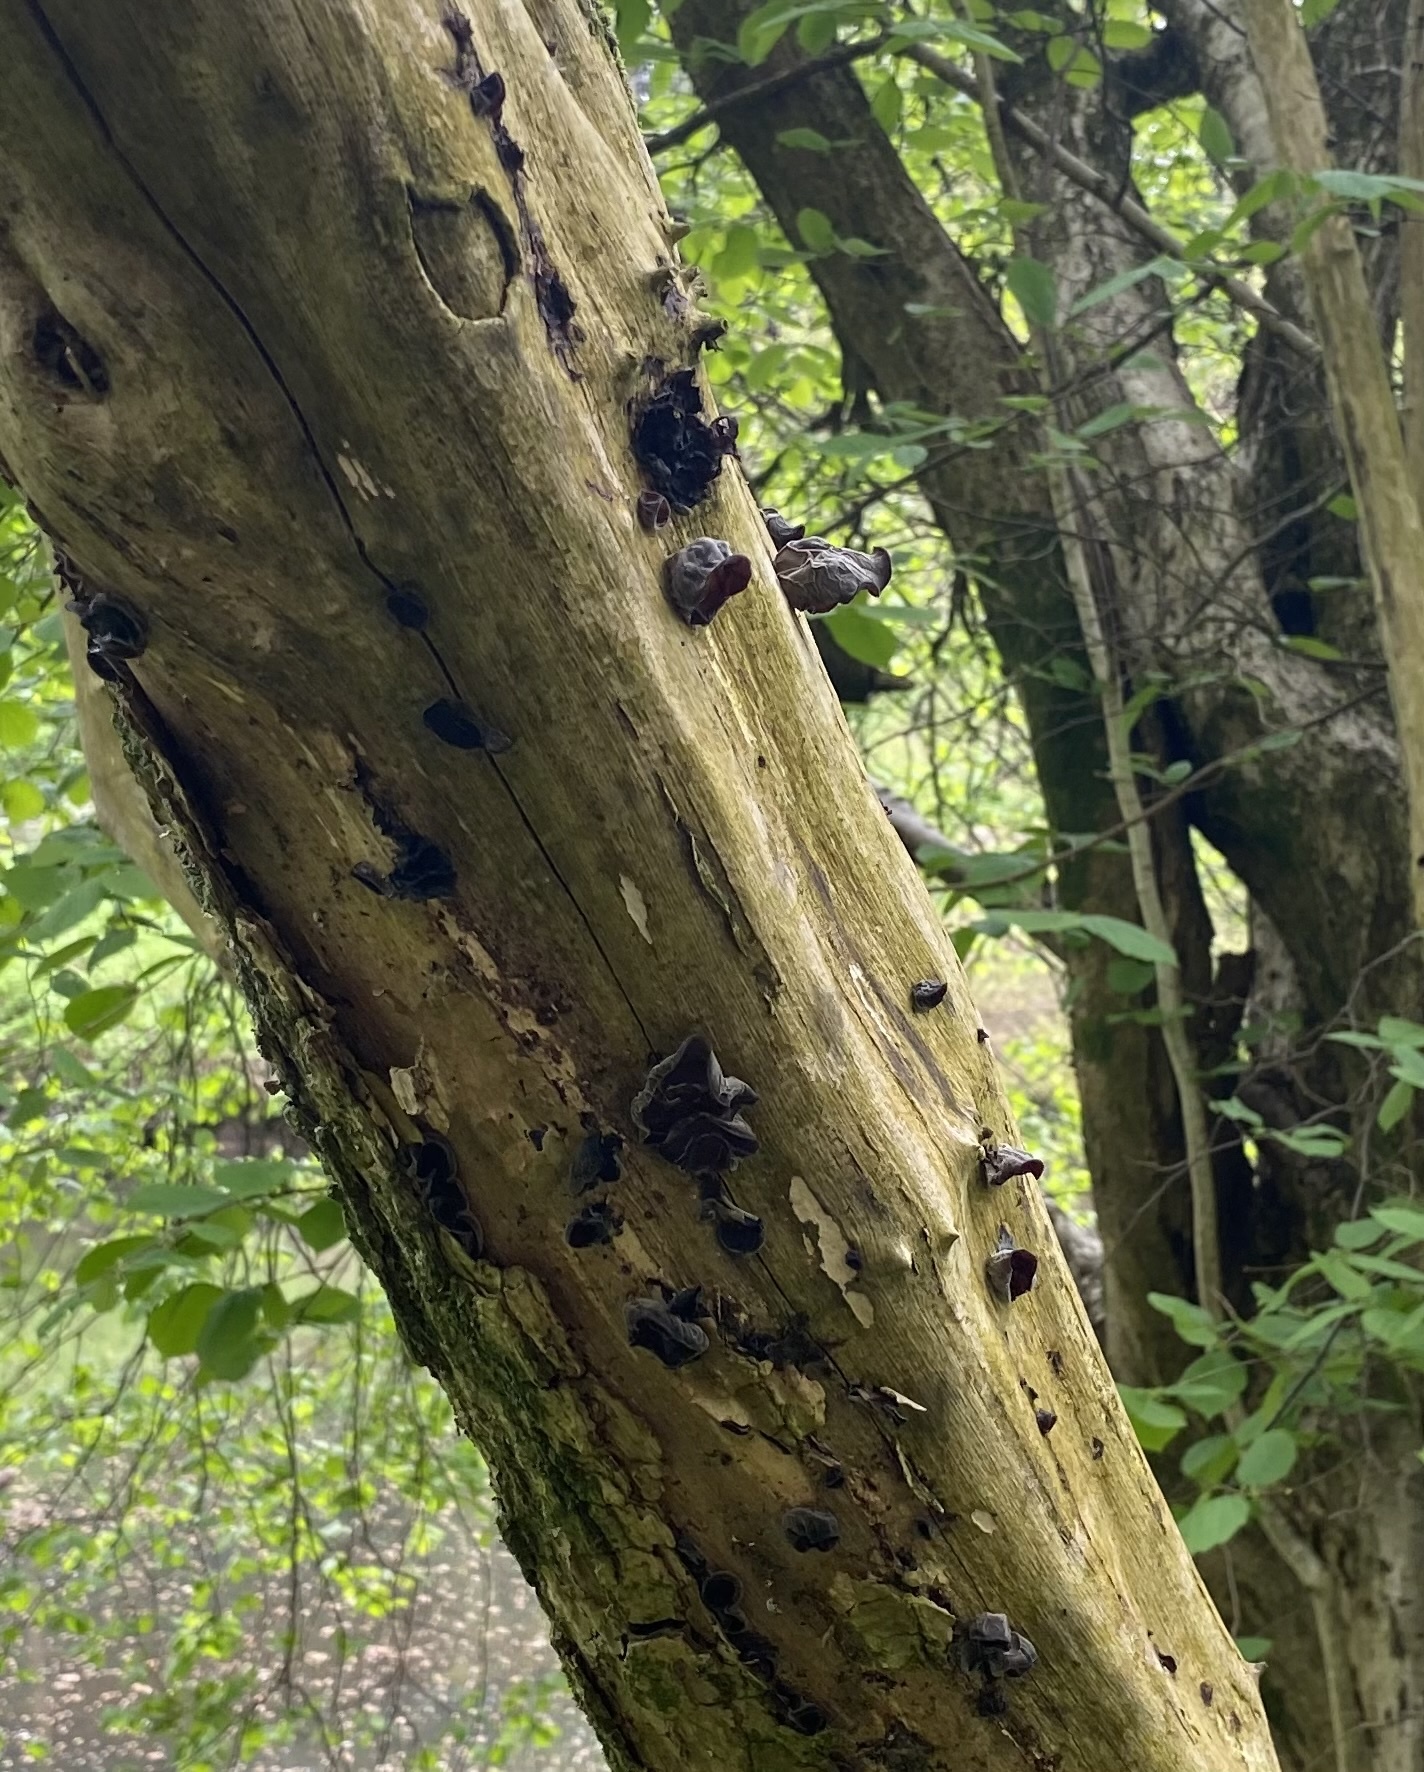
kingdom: Fungi
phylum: Basidiomycota
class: Agaricomycetes
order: Auriculariales
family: Auriculariaceae
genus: Auricularia
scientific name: Auricularia auricula-judae
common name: Jelly ear
